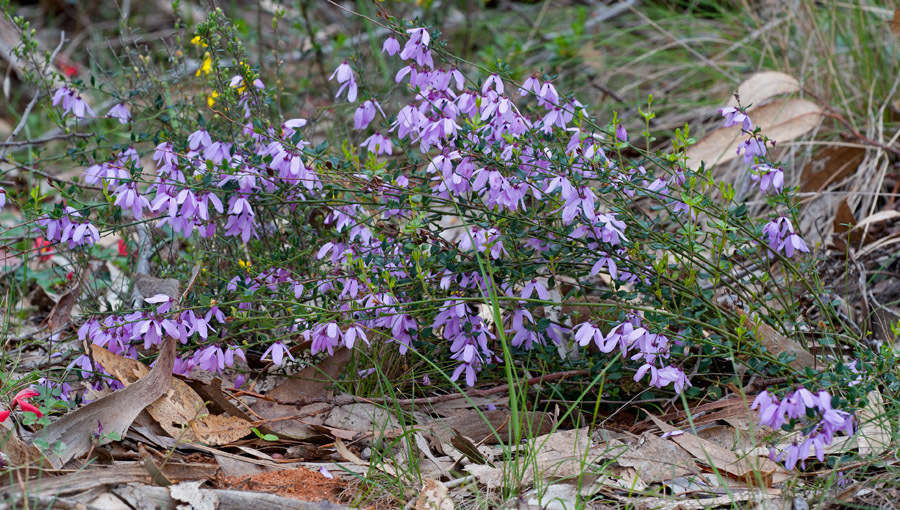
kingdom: Plantae
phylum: Tracheophyta
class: Magnoliopsida
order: Oxalidales
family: Elaeocarpaceae
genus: Tetratheca
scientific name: Tetratheca ciliata
